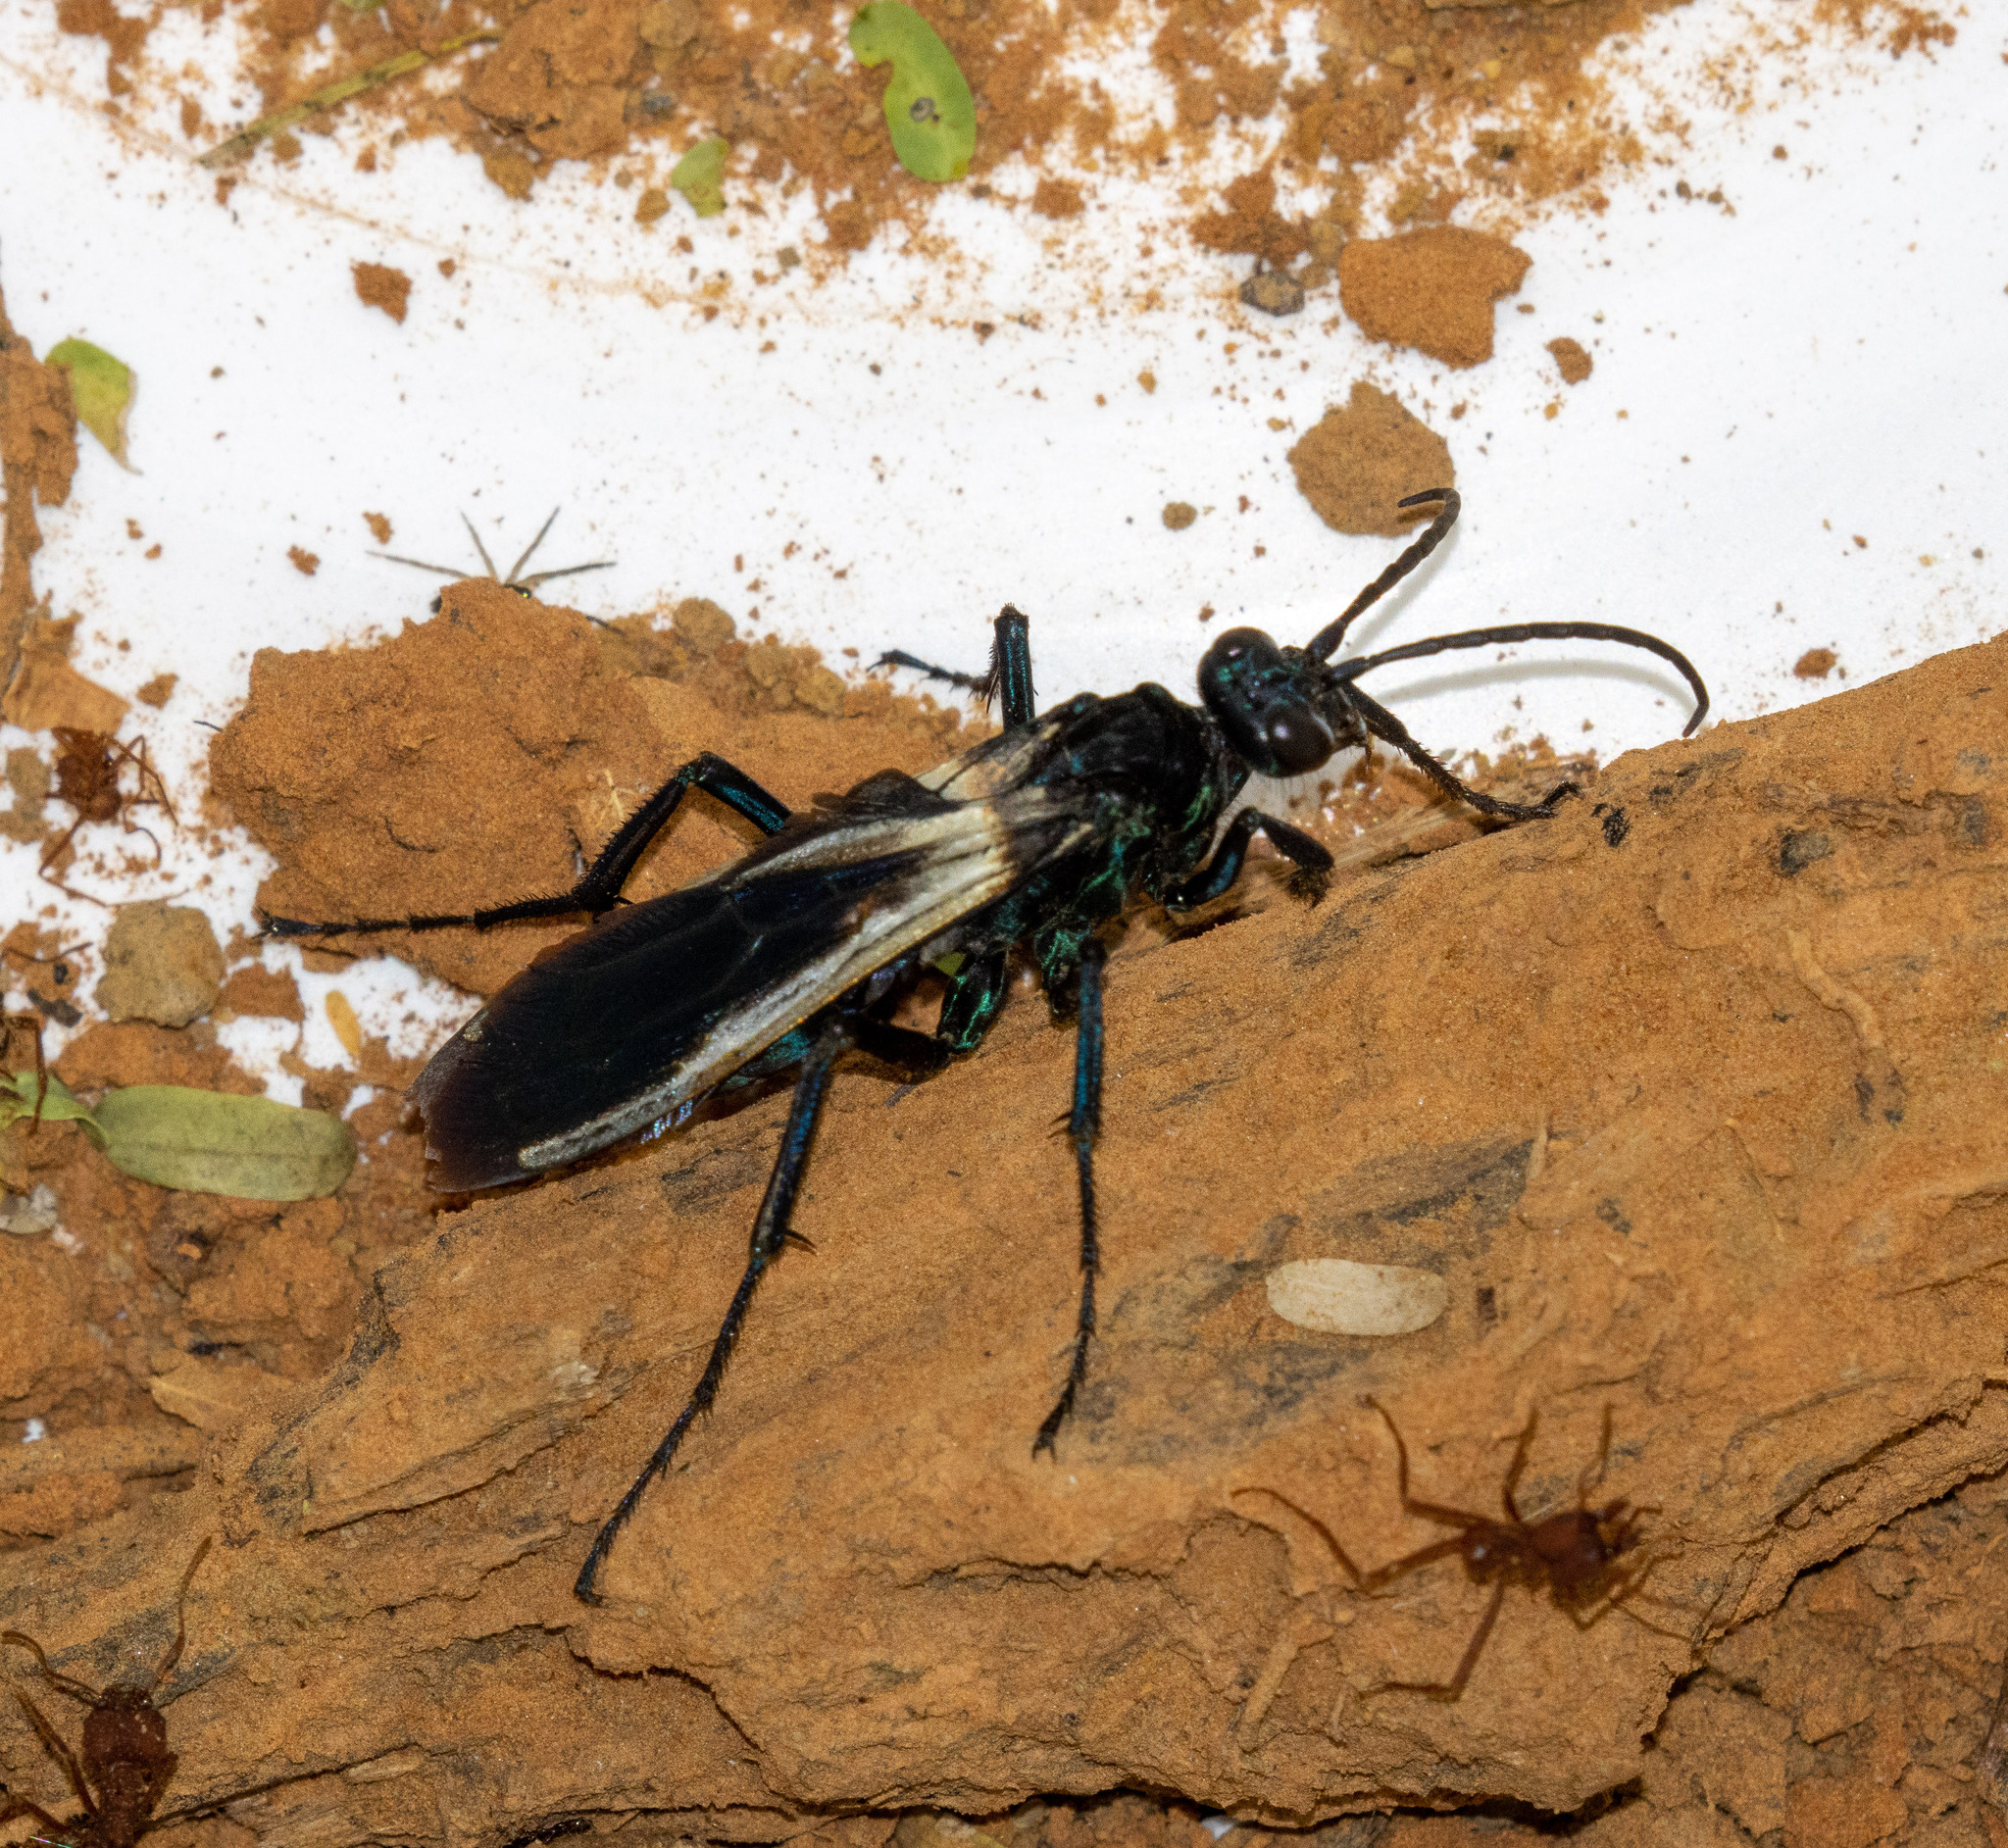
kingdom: Animalia
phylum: Arthropoda
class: Insecta
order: Hymenoptera
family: Pompilidae
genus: Pepsis
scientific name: Pepsis decorata
